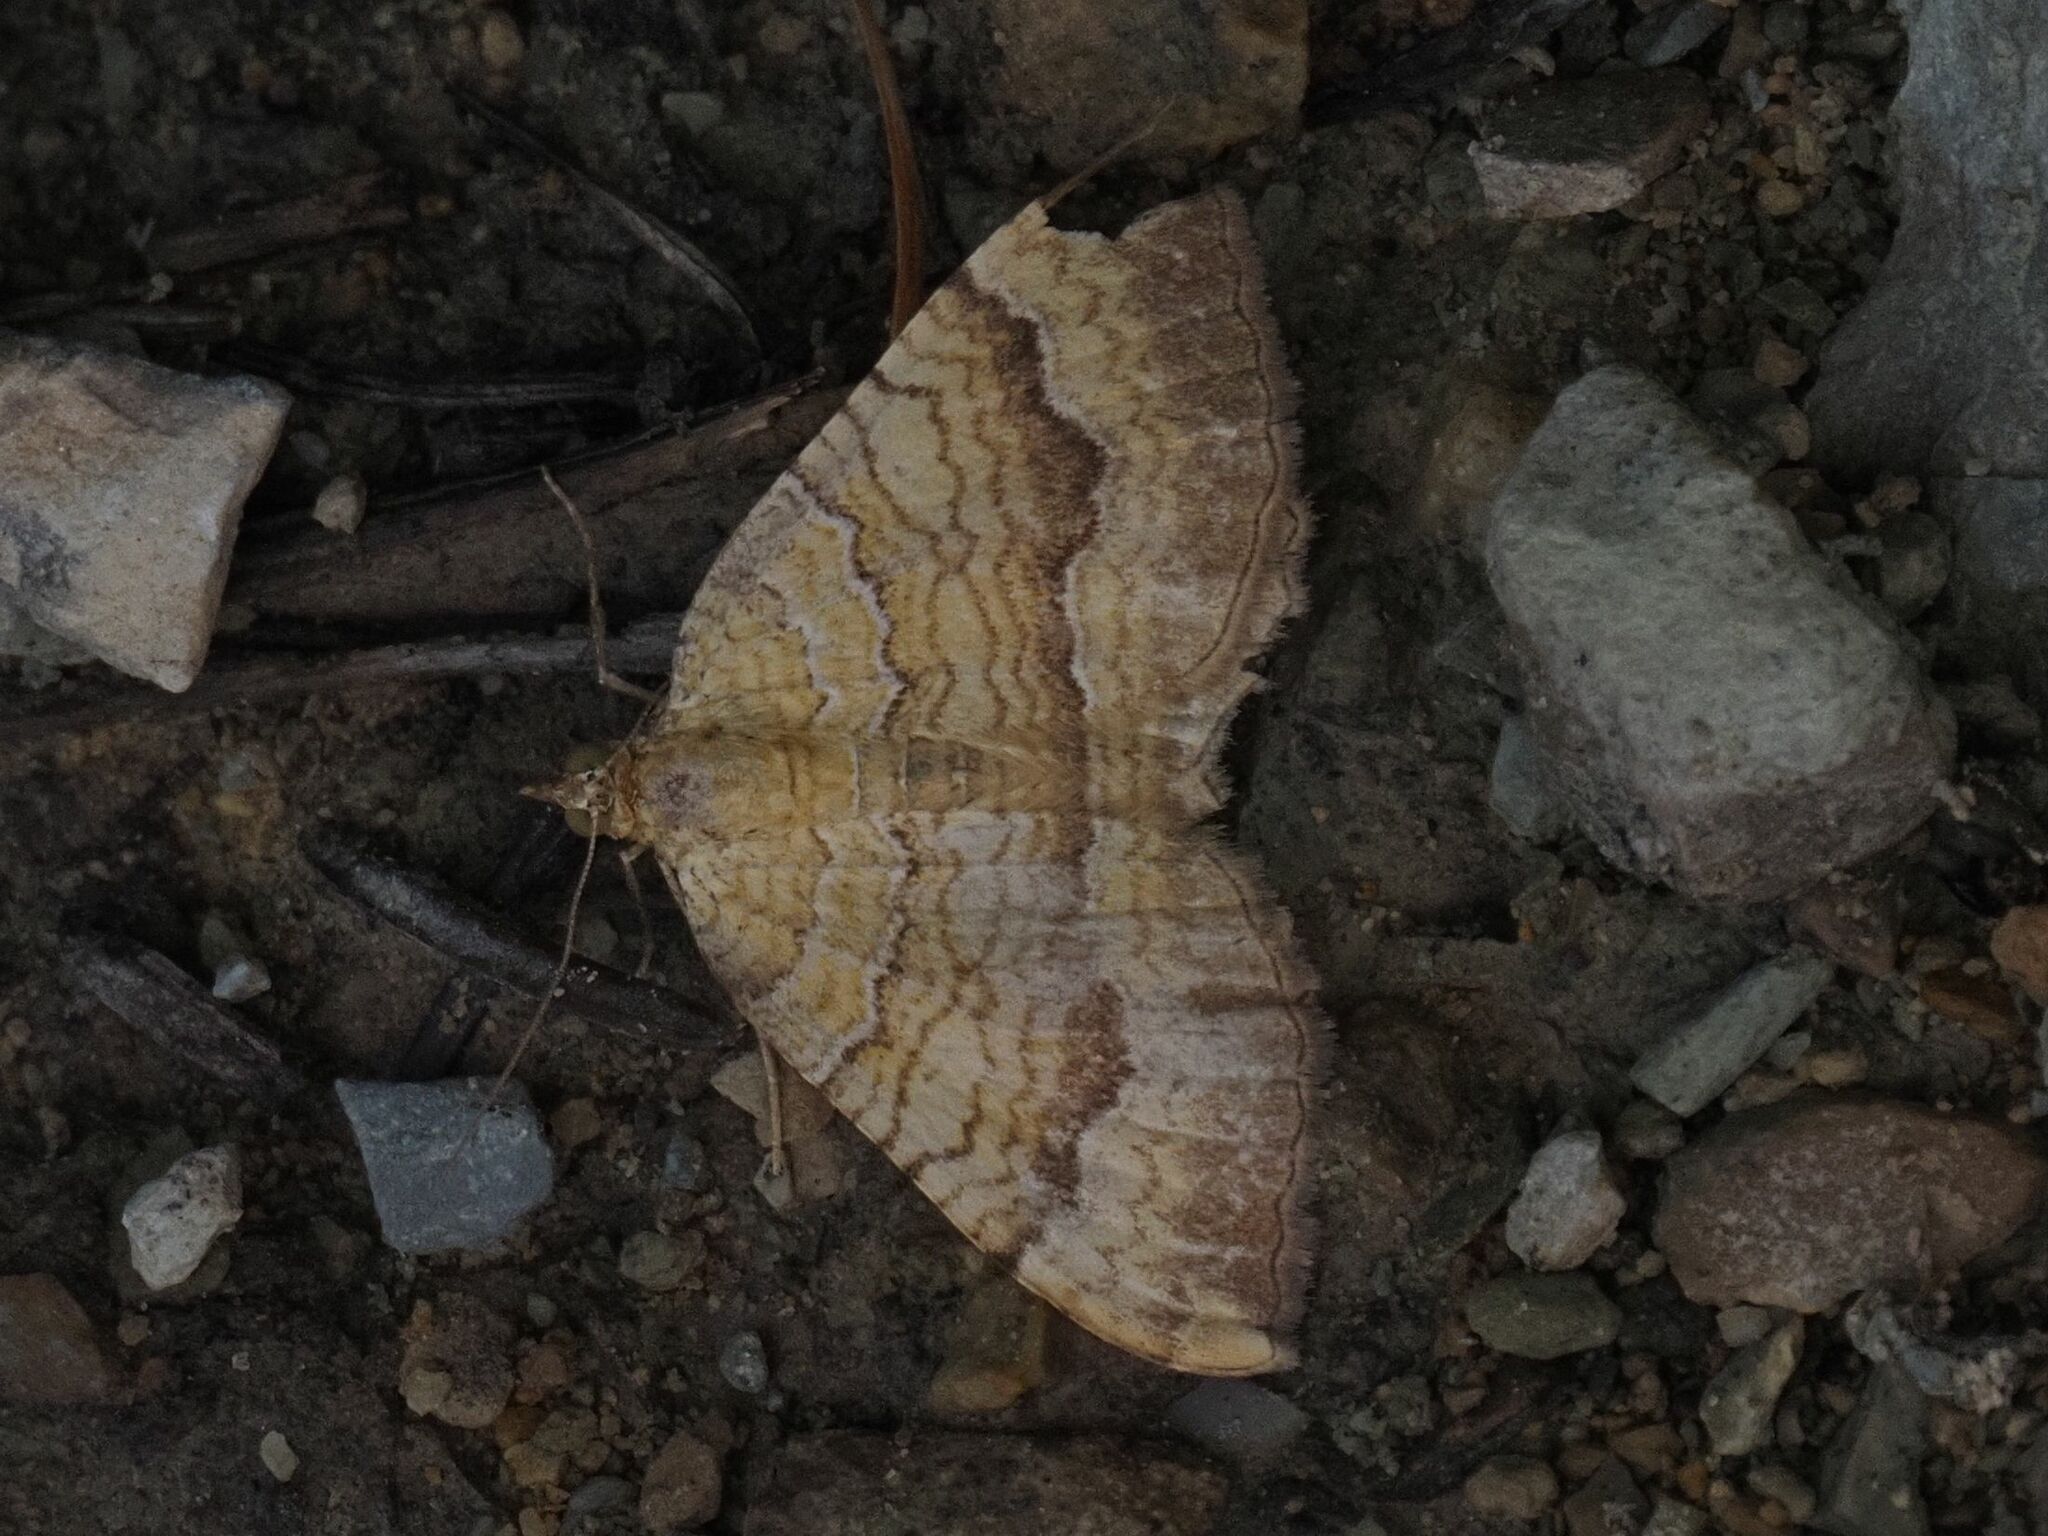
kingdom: Animalia
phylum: Arthropoda
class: Insecta
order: Lepidoptera
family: Geometridae
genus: Camptogramma
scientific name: Camptogramma bilineata
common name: Yellow shell
